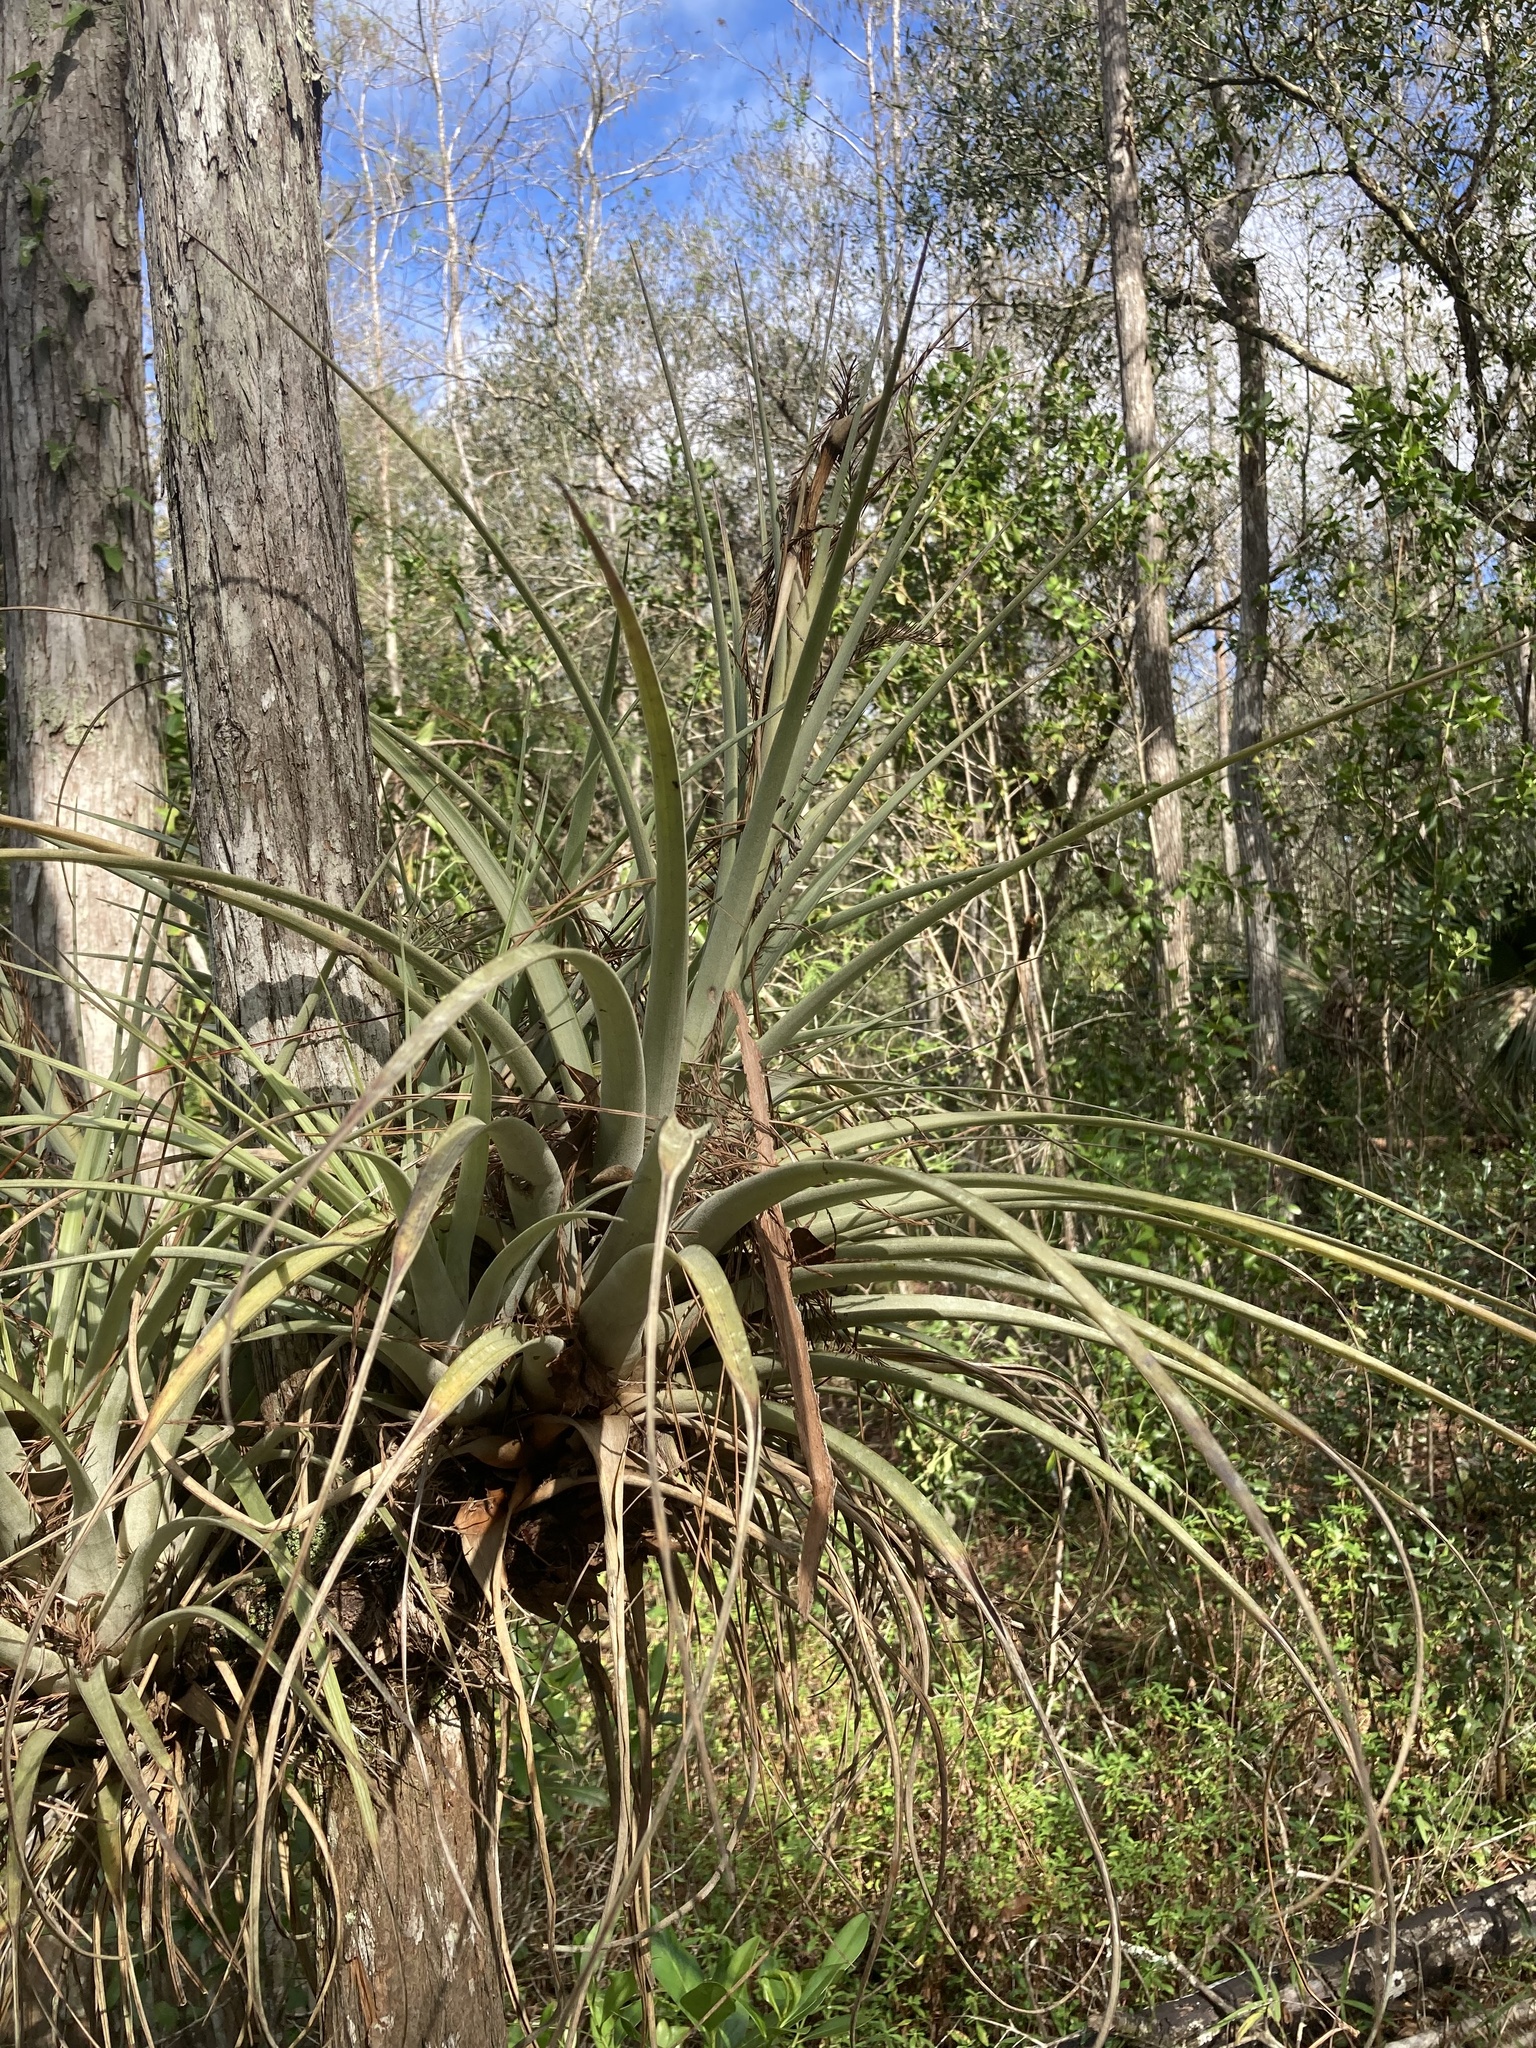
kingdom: Plantae
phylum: Tracheophyta
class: Liliopsida
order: Poales
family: Bromeliaceae
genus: Tillandsia
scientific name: Tillandsia fasciculata
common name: Giant airplant
